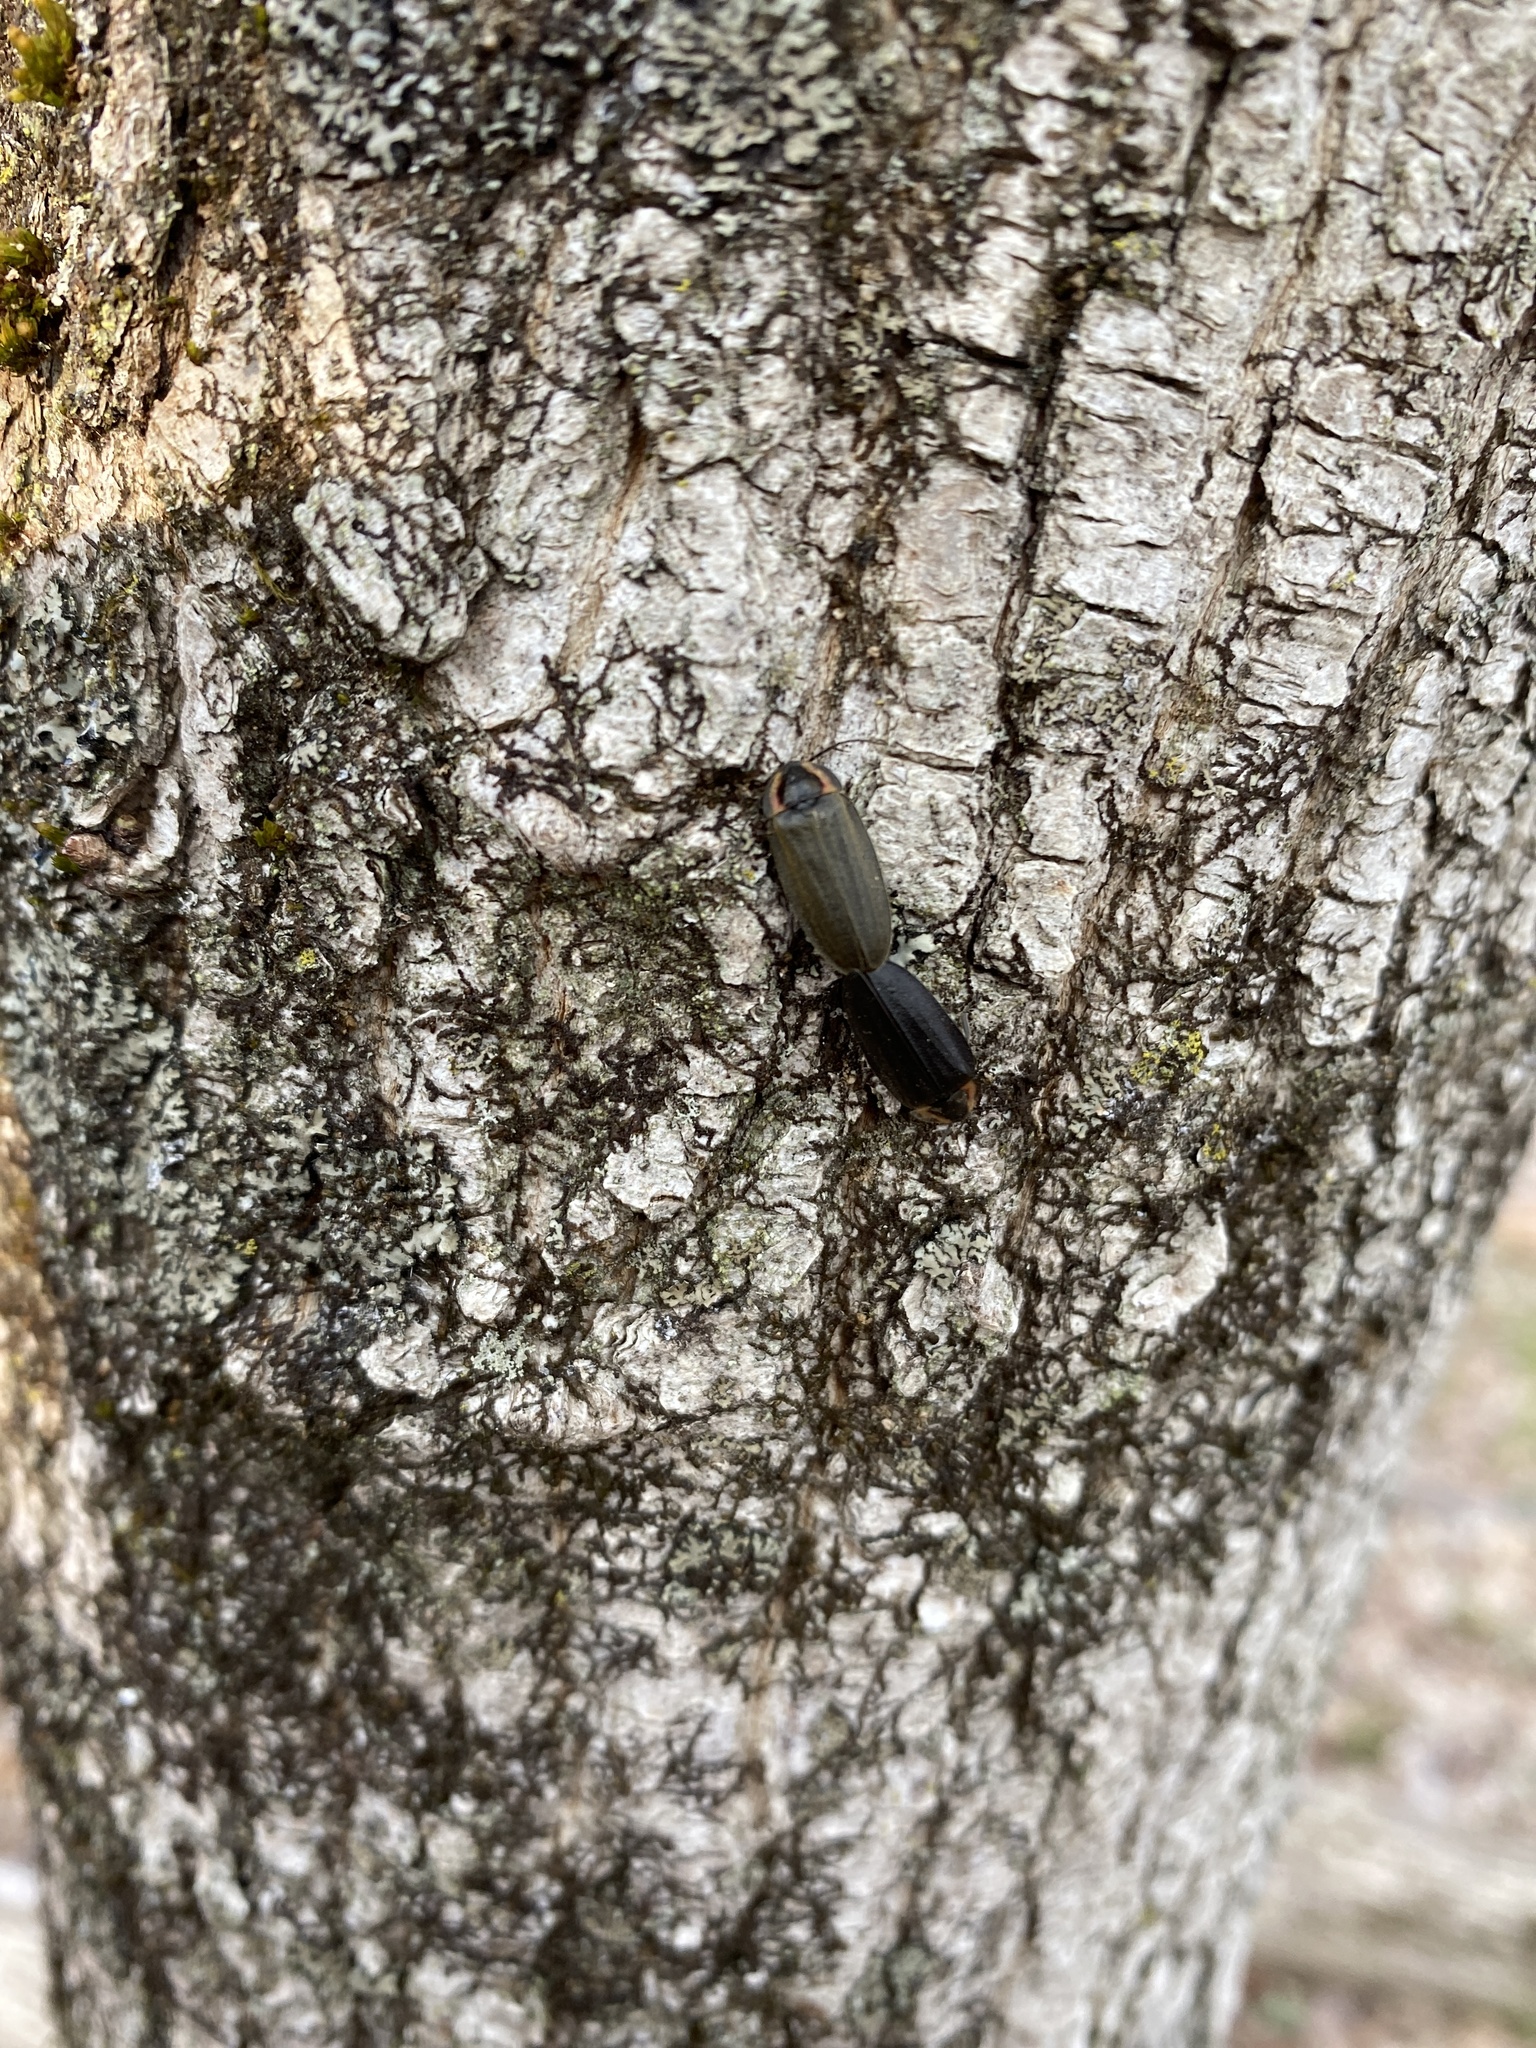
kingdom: Animalia
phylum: Arthropoda
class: Insecta
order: Coleoptera
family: Lampyridae
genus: Photinus
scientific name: Photinus corrusca
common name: Winter firefly
